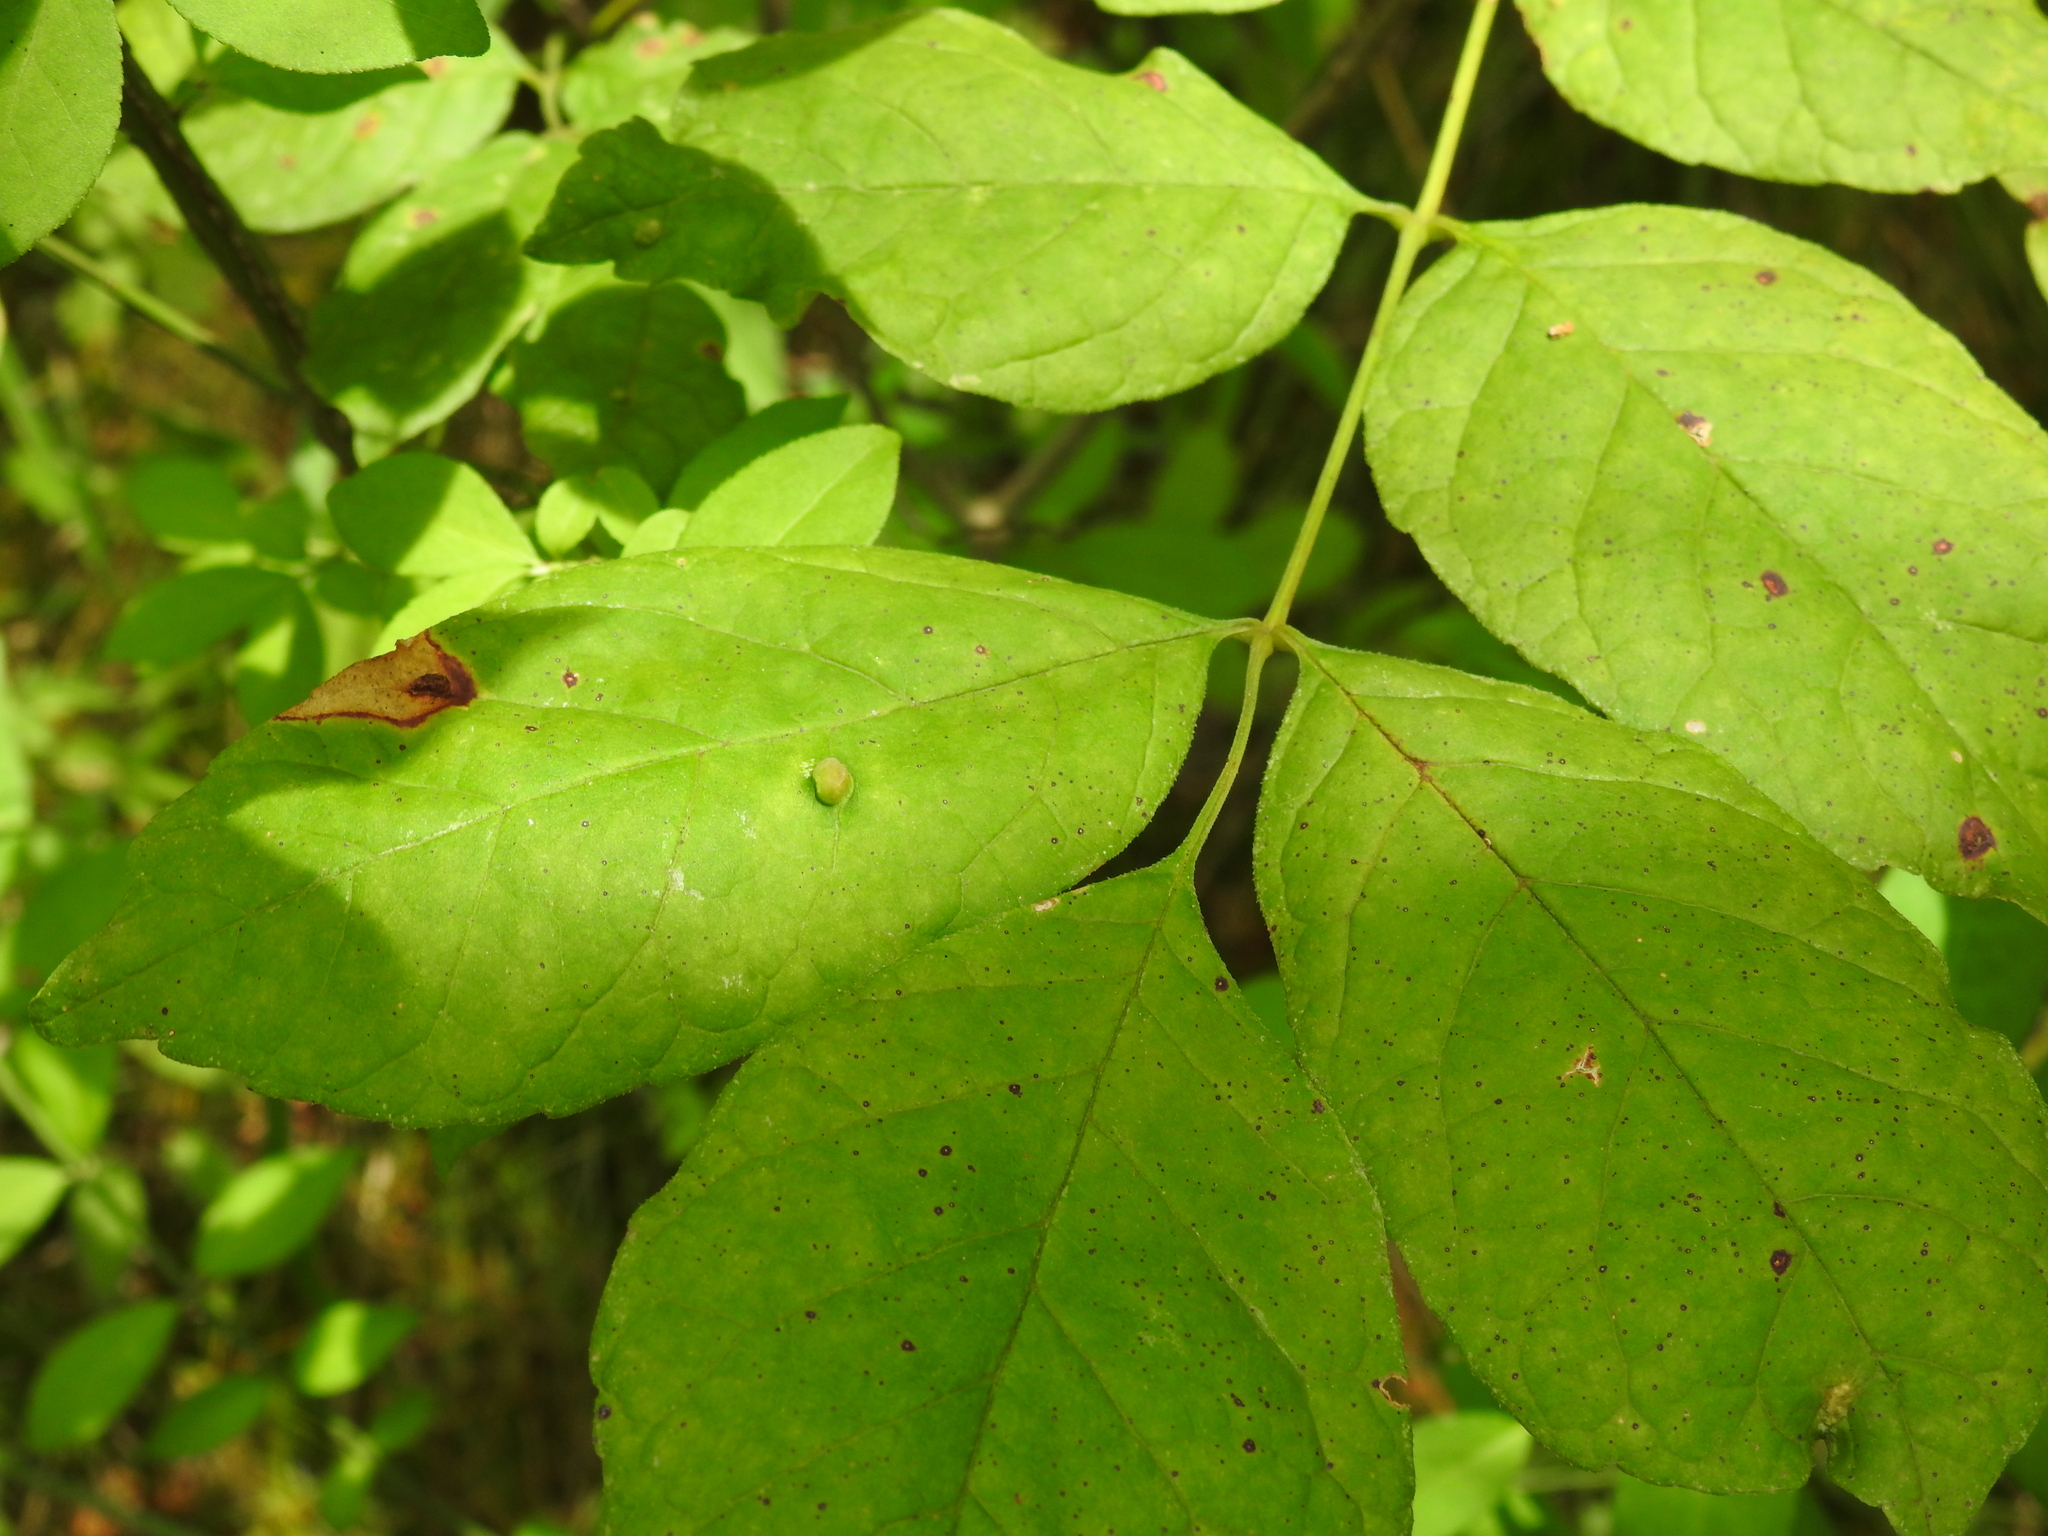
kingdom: Animalia
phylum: Arthropoda
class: Arachnida
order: Trombidiformes
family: Eriophyidae
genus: Aceria
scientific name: Aceria fraxinicola
